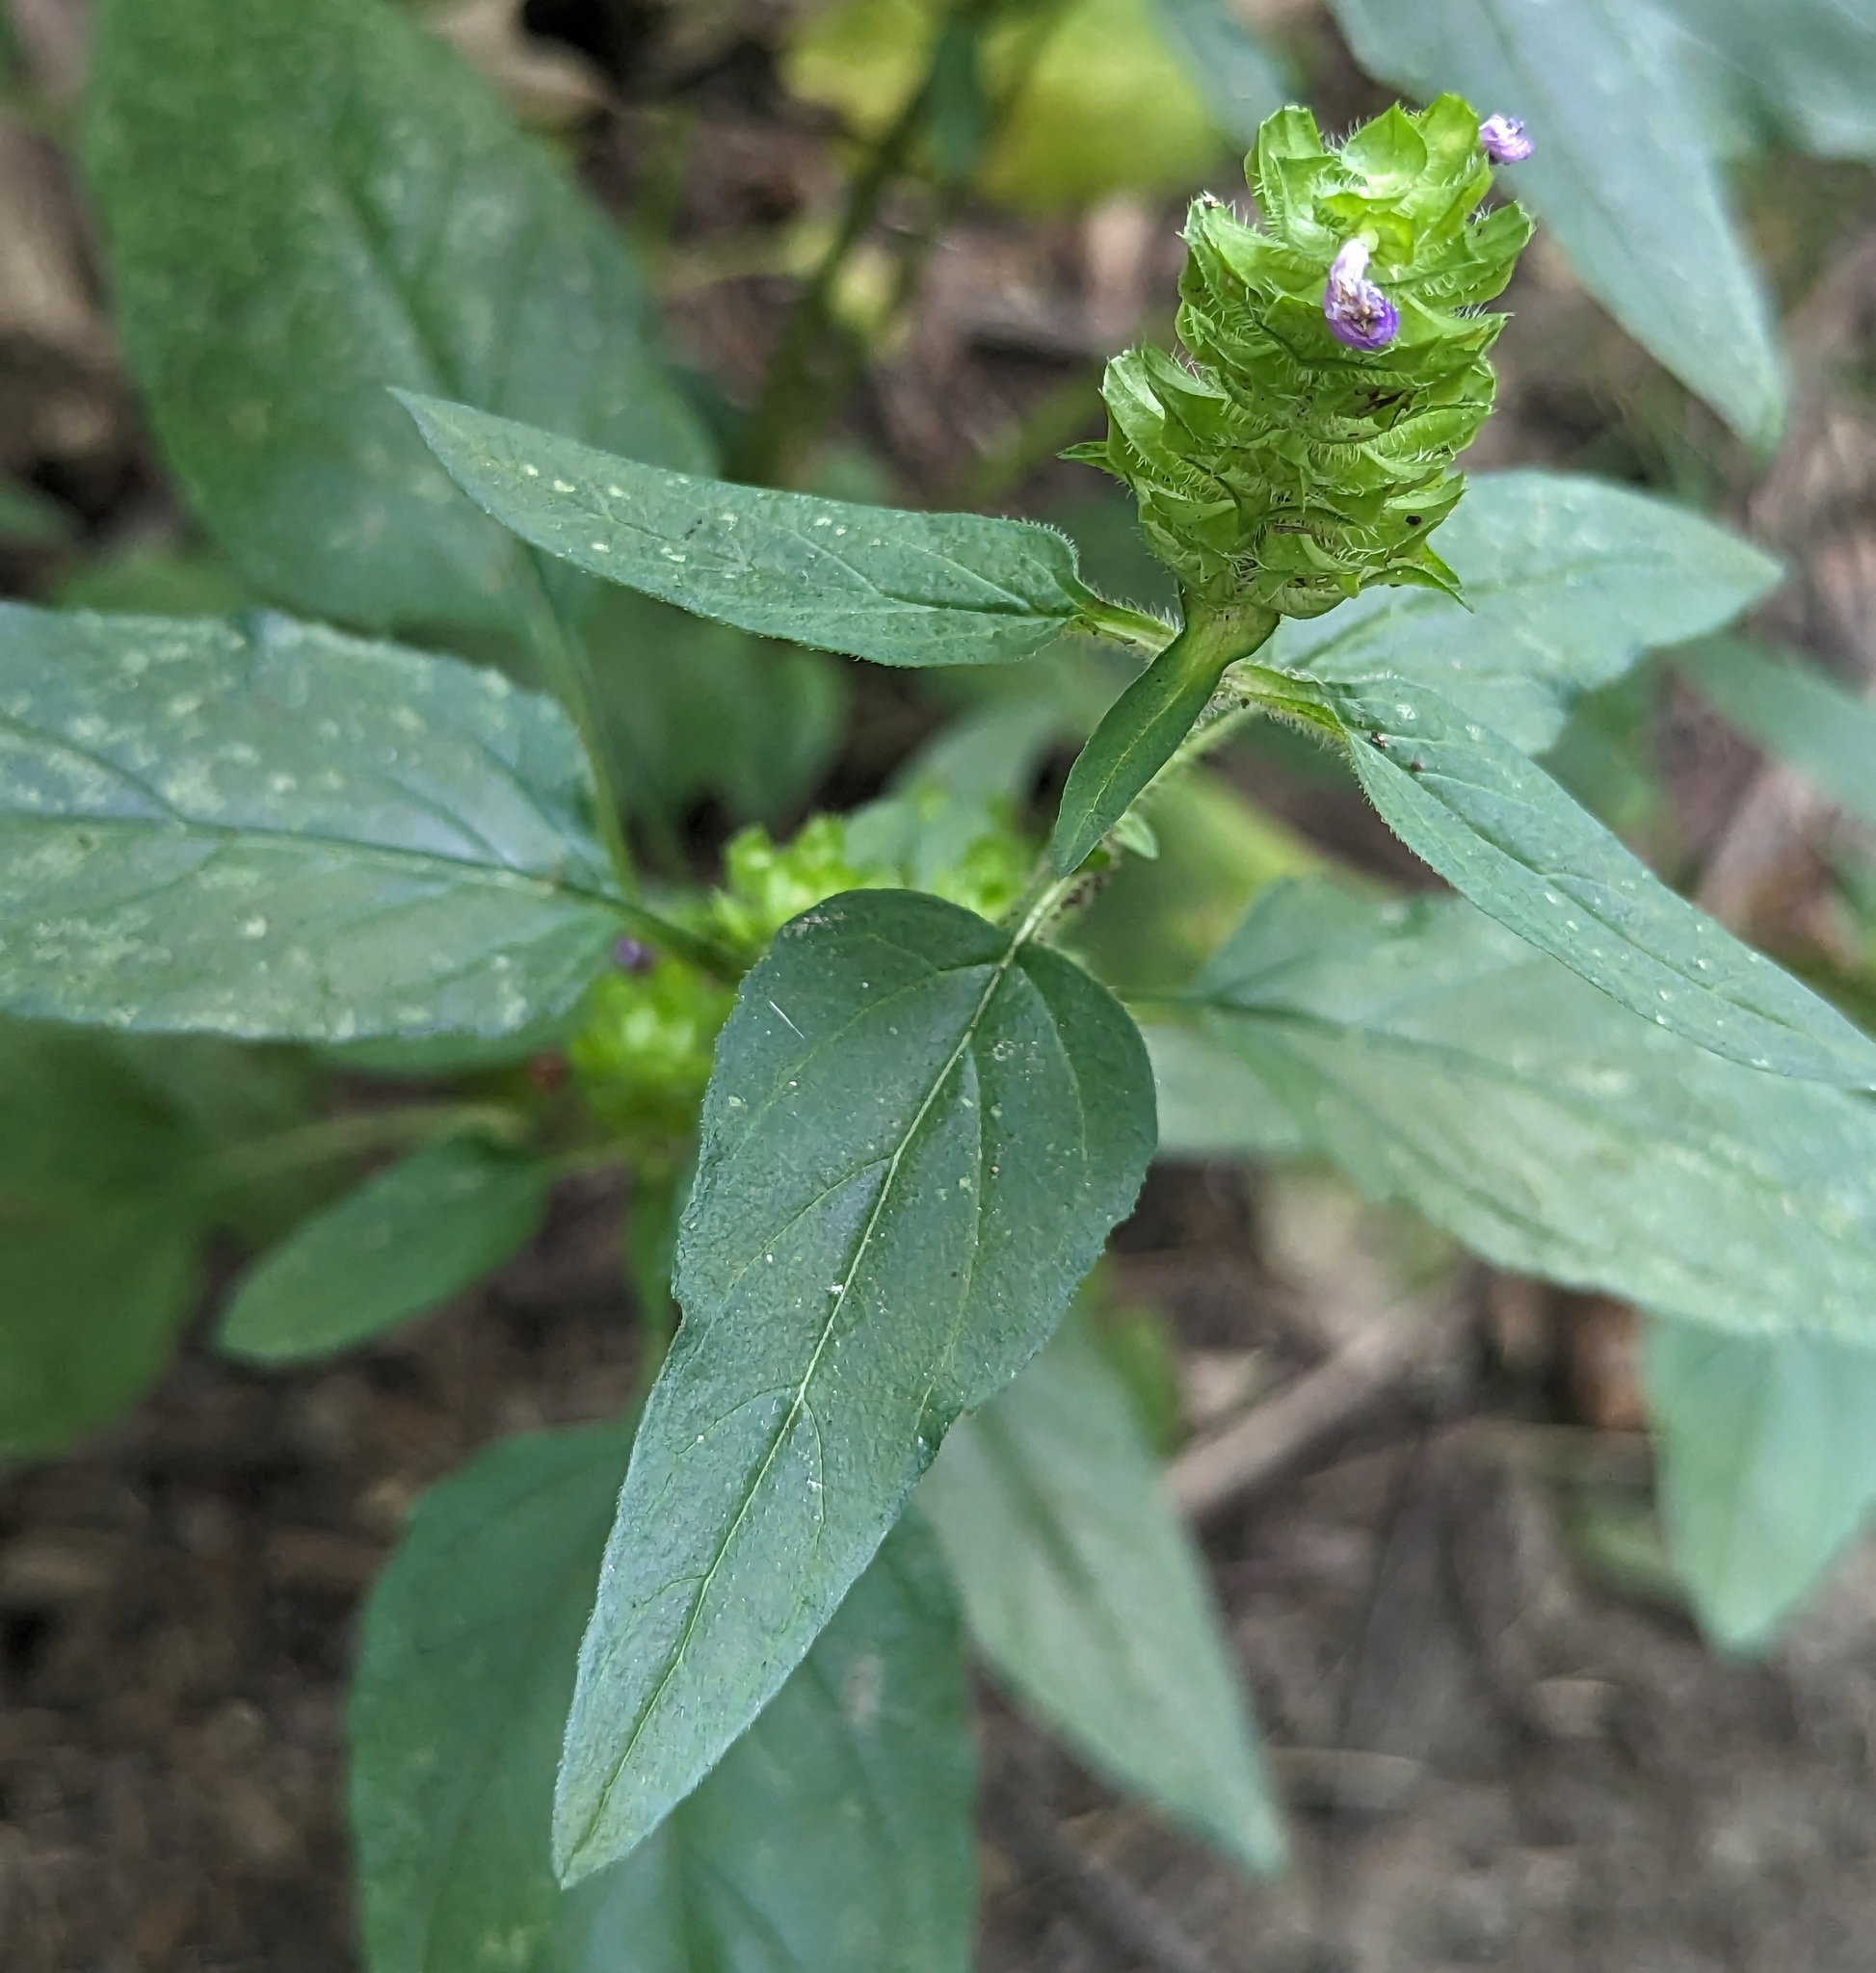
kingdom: Plantae
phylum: Tracheophyta
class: Magnoliopsida
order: Lamiales
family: Lamiaceae
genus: Prunella
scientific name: Prunella vulgaris
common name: Heal-all
